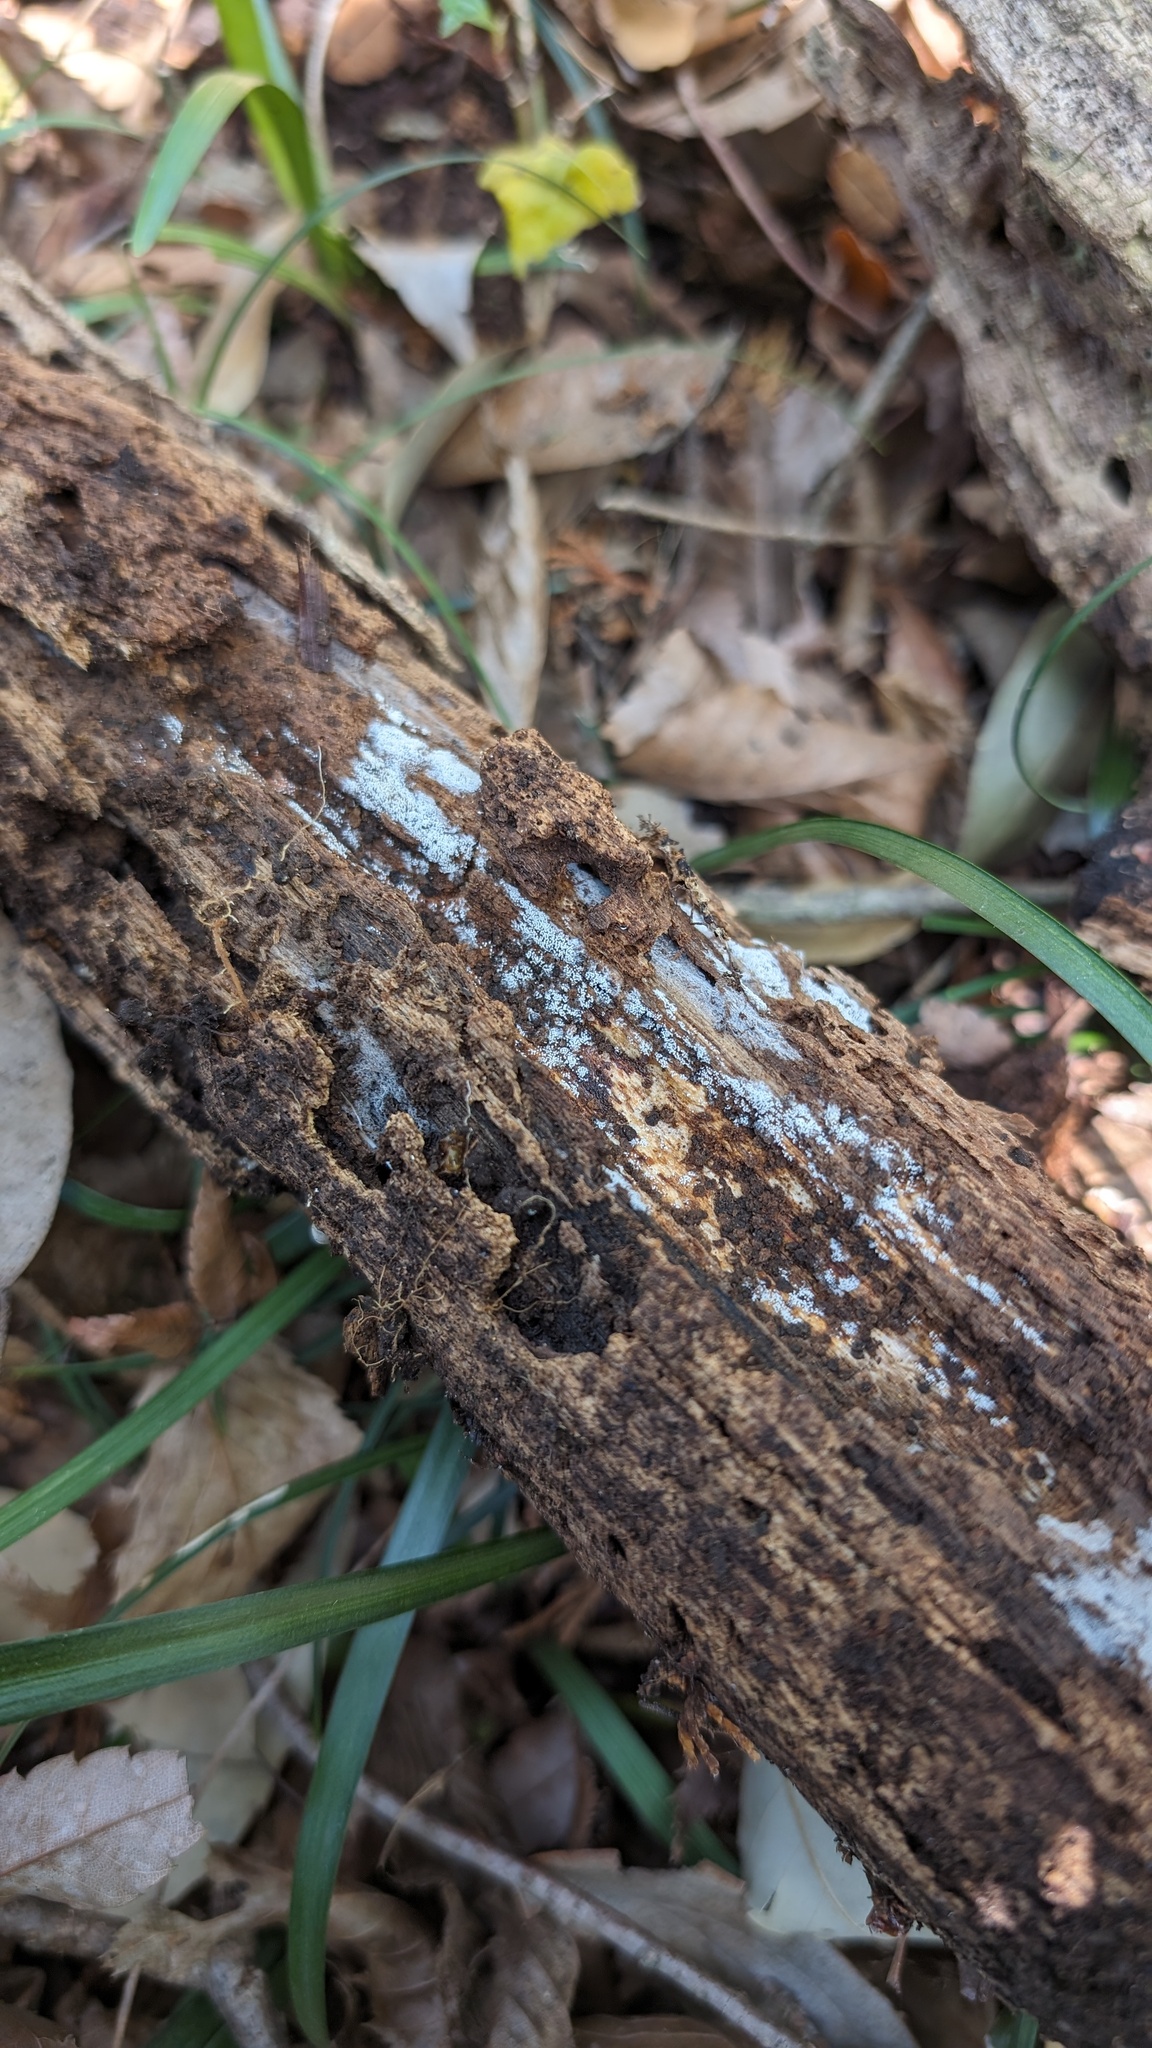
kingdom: Fungi
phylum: Basidiomycota
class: Agaricomycetes
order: Agaricales
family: Marasmiaceae
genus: Henningsomyces
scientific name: Henningsomyces candidus
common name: White tubelet
